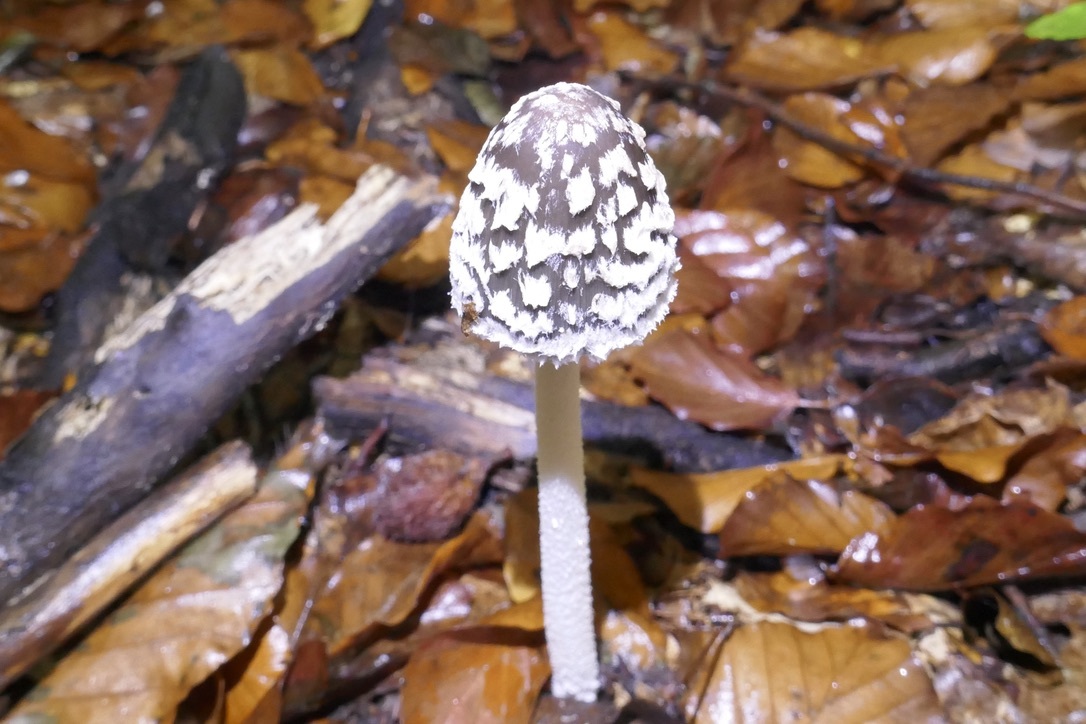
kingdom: Fungi
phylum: Basidiomycota
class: Agaricomycetes
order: Agaricales
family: Psathyrellaceae
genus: Coprinopsis
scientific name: Coprinopsis picacea
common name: Magpie inkcap
